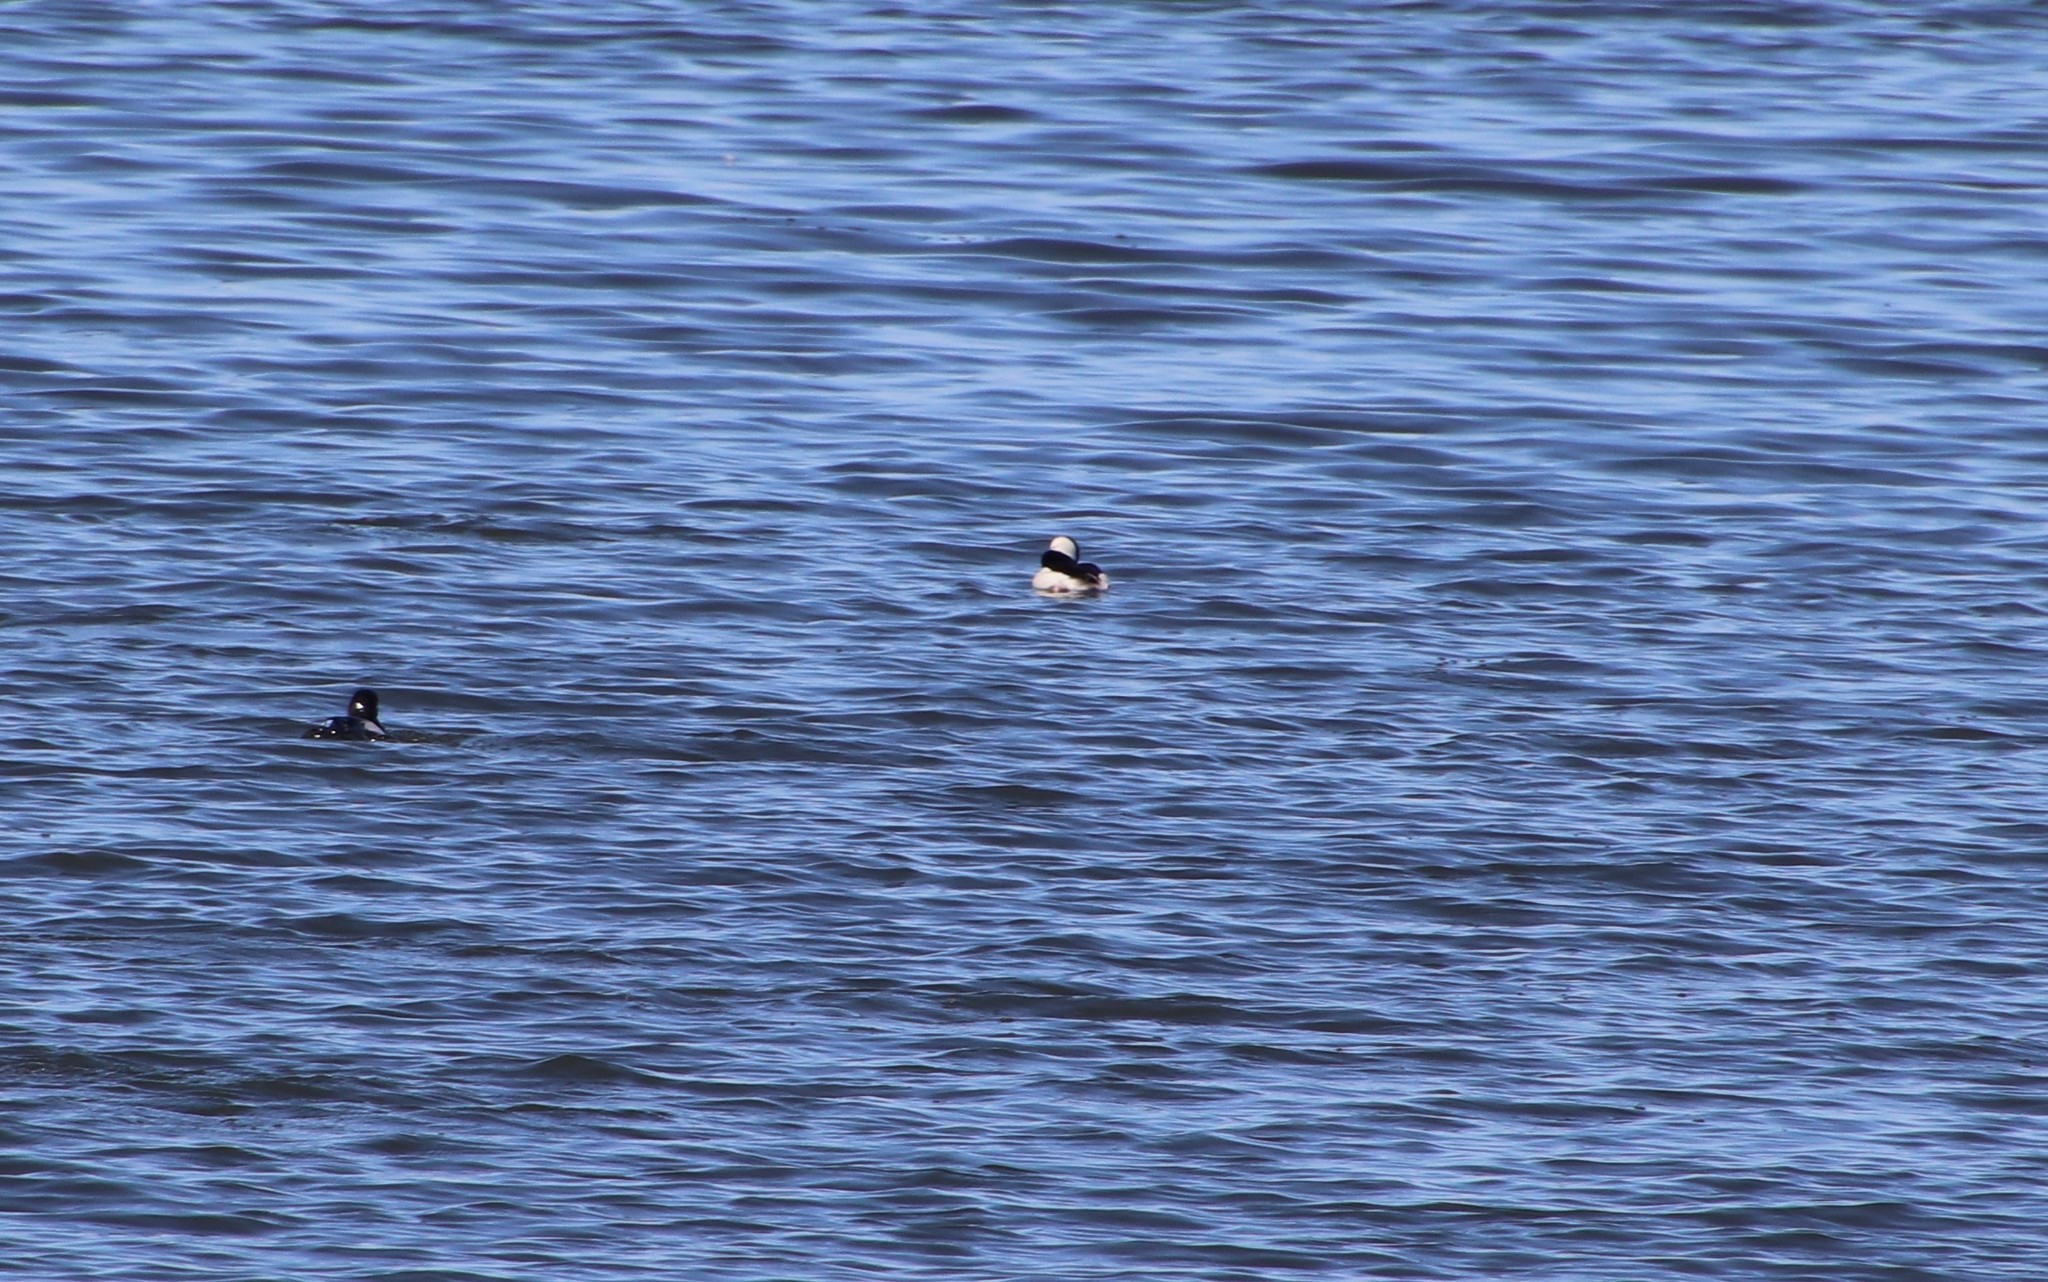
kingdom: Animalia
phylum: Chordata
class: Aves
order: Anseriformes
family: Anatidae
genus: Bucephala
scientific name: Bucephala albeola
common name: Bufflehead
